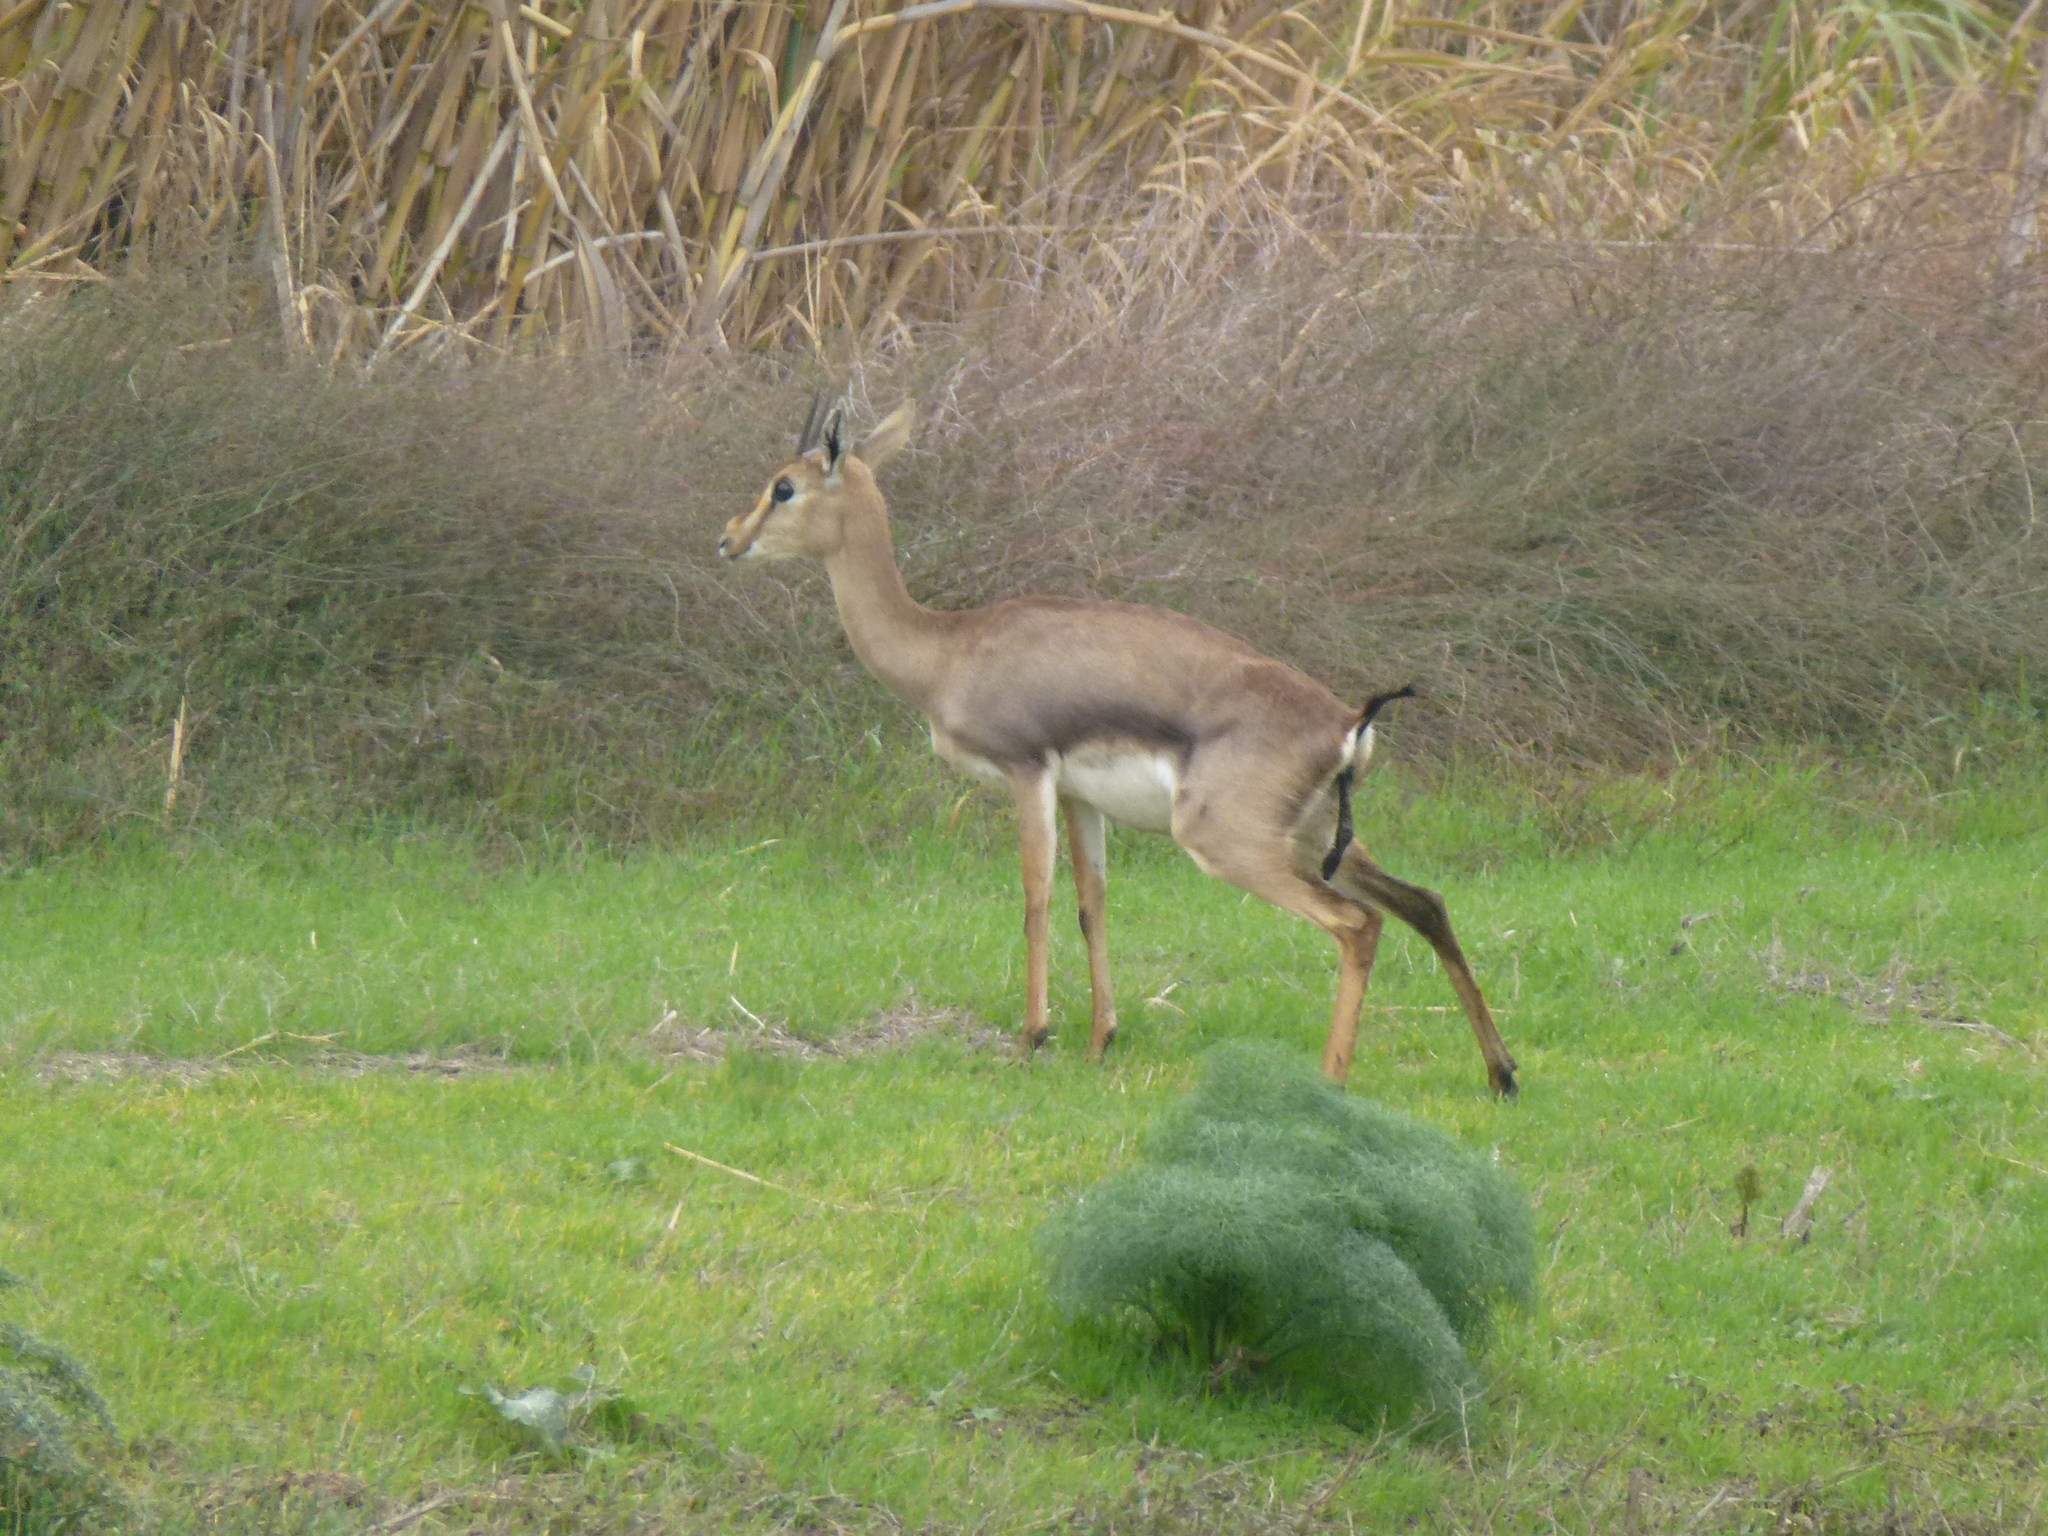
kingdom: Animalia
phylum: Chordata
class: Mammalia
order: Artiodactyla
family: Bovidae
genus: Gazella
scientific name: Gazella gazella
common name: Mountain gazelle
